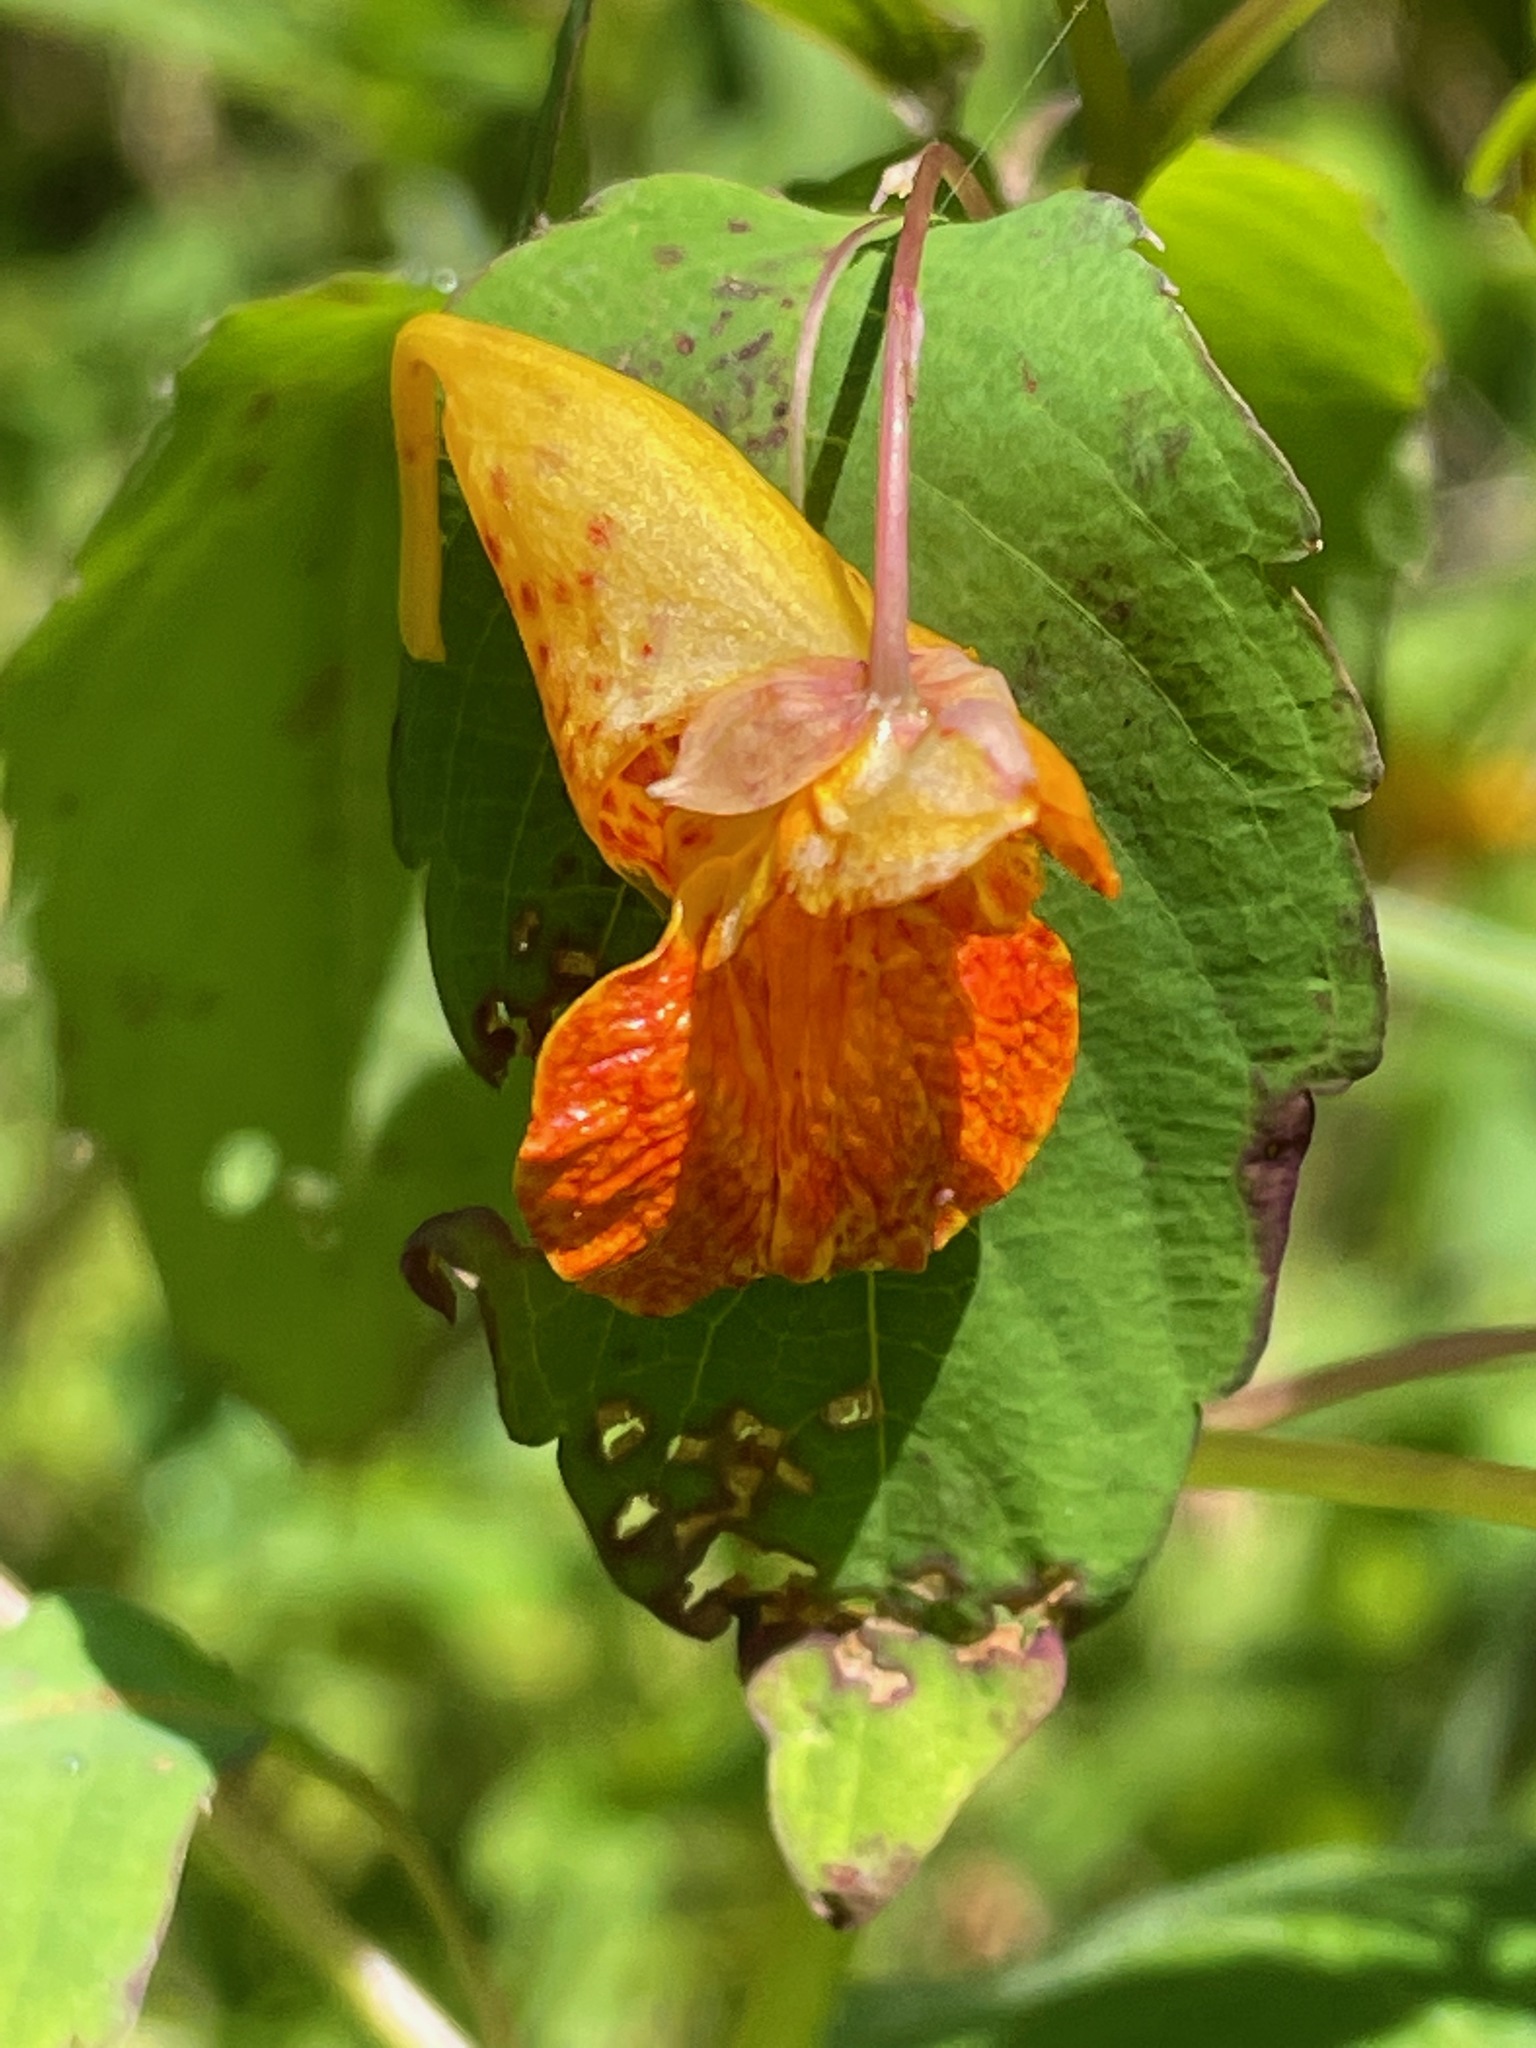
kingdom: Plantae
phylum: Tracheophyta
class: Magnoliopsida
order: Ericales
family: Balsaminaceae
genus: Impatiens
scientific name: Impatiens capensis
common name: Orange balsam
